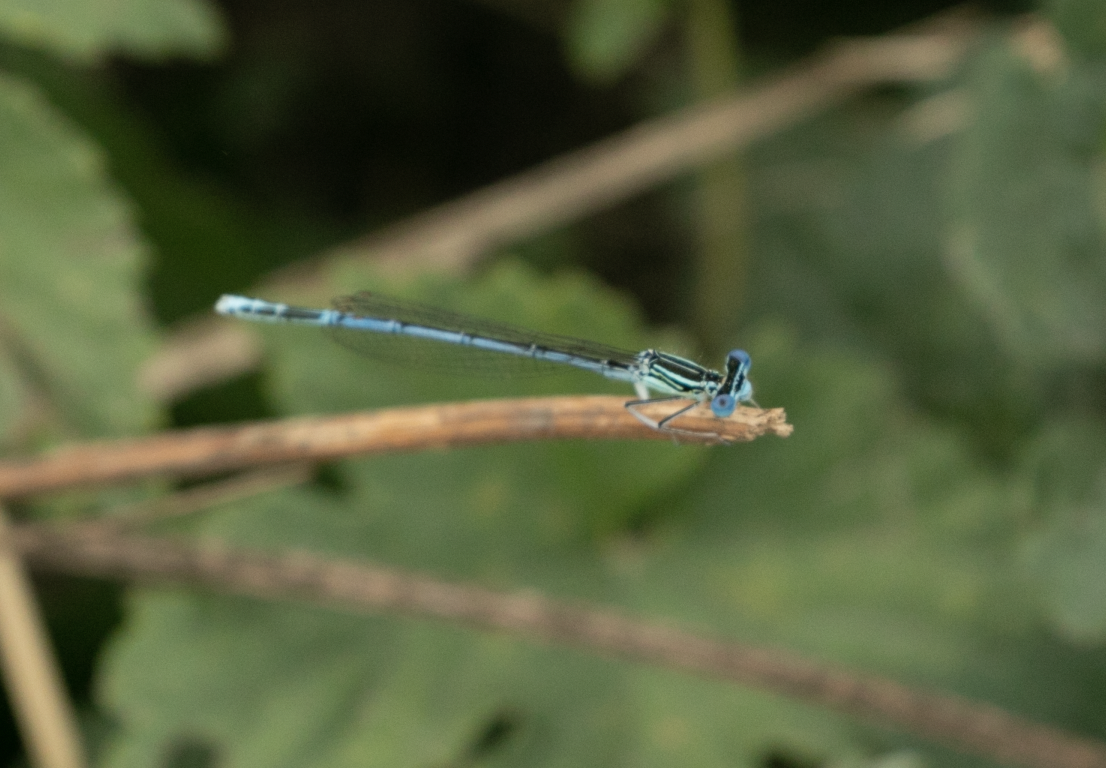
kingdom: Animalia
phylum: Arthropoda
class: Insecta
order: Odonata
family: Platycnemididae
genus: Platycnemis
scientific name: Platycnemis pennipes
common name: White-legged damselfly
